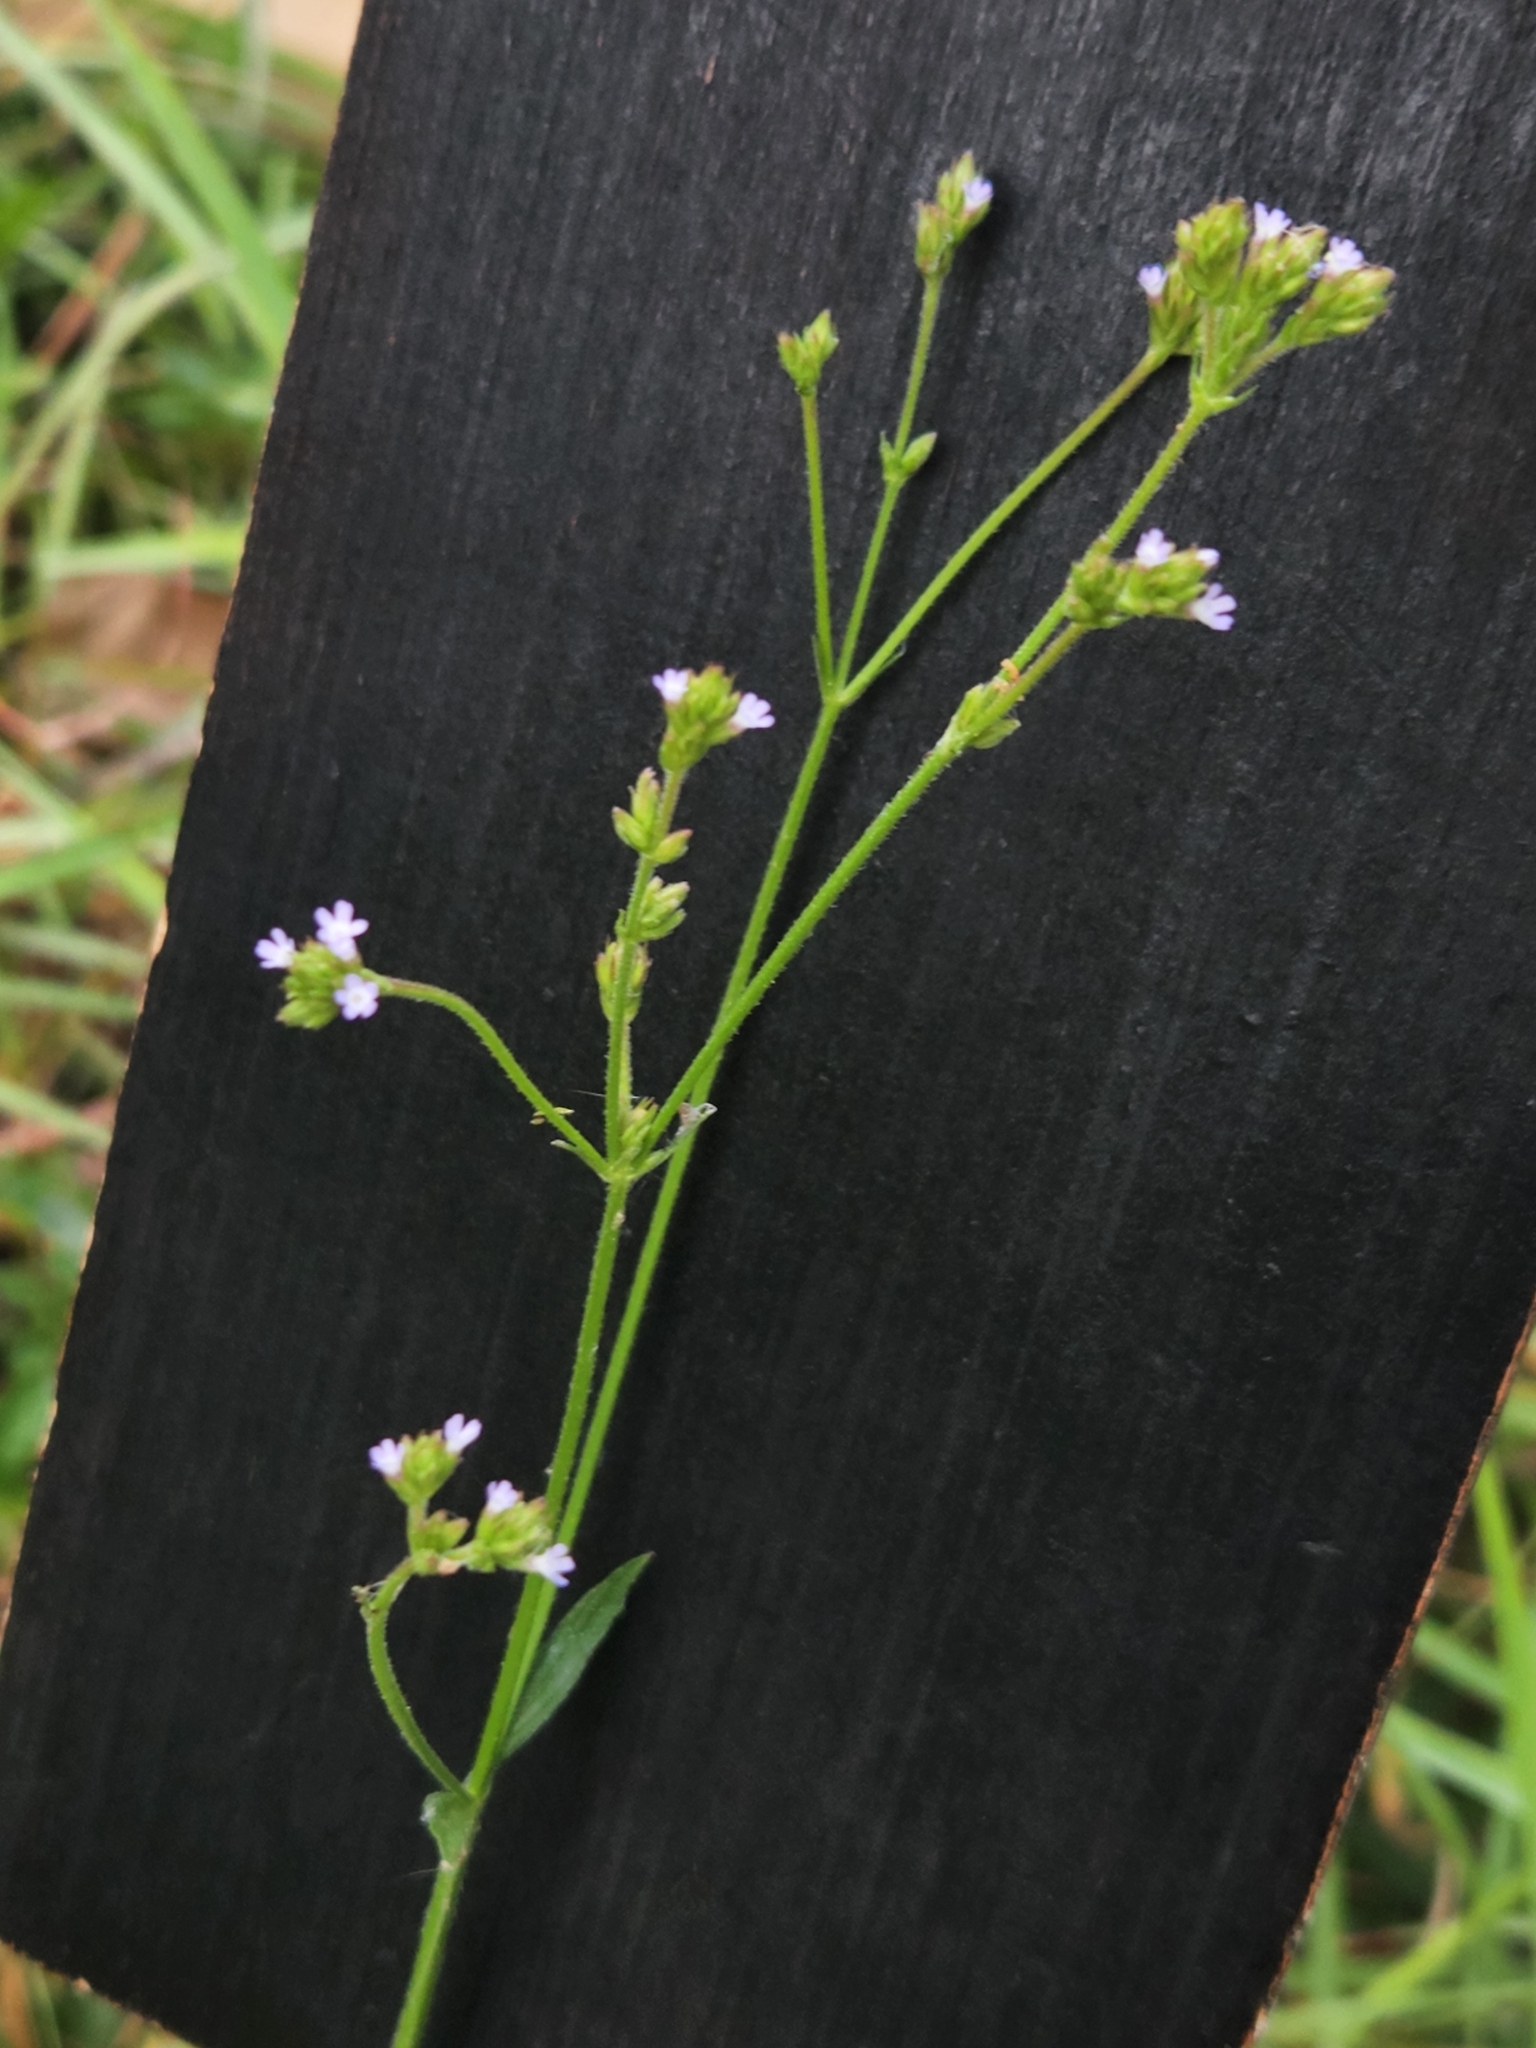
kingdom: Plantae
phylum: Tracheophyta
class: Magnoliopsida
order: Lamiales
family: Verbenaceae
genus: Verbena
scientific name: Verbena brasiliensis
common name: Brazilian vervain
